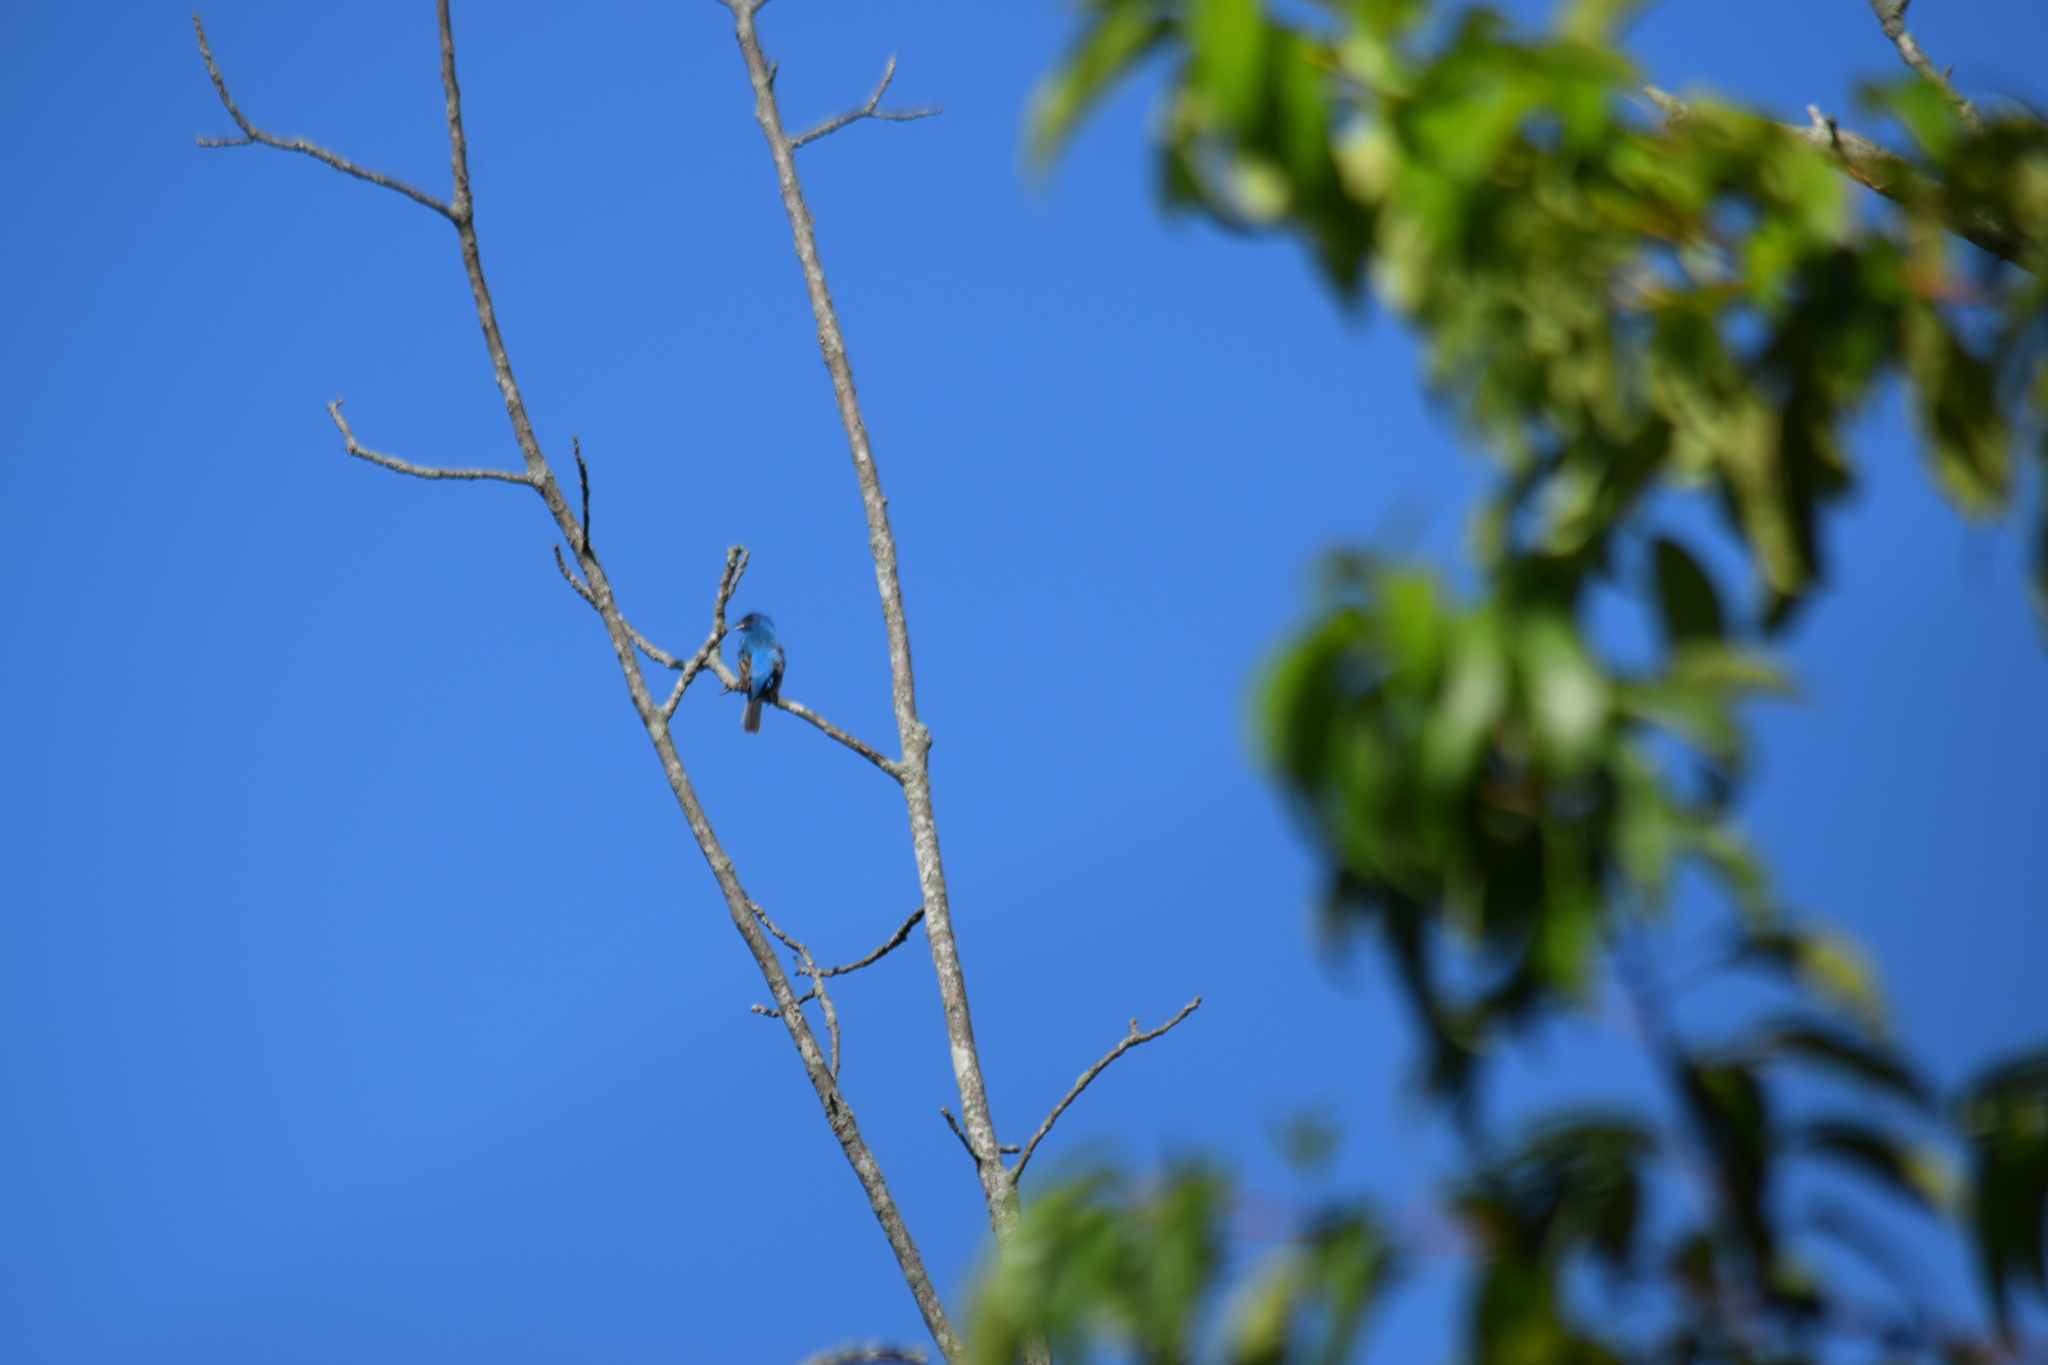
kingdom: Animalia
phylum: Chordata
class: Aves
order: Passeriformes
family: Cardinalidae
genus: Passerina
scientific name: Passerina cyanea
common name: Indigo bunting
